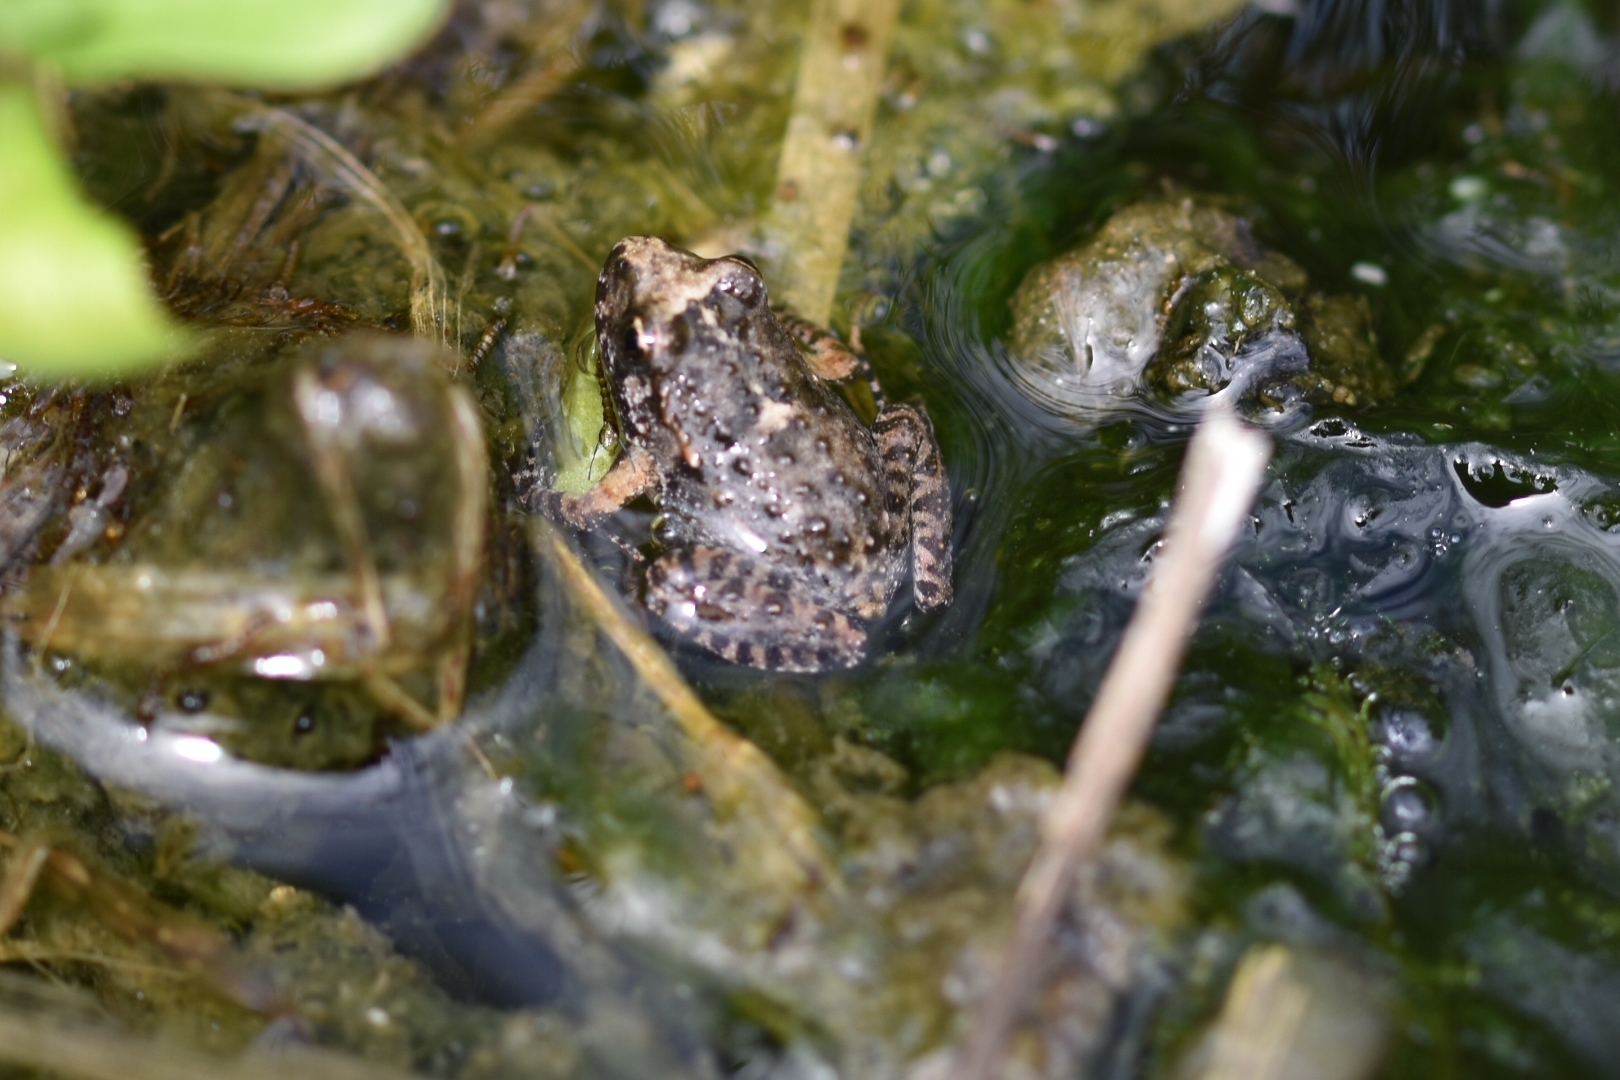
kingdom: Animalia
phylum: Chordata
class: Amphibia
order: Anura
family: Alytidae
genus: Discoglossus
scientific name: Discoglossus sardus
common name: Sardinia painted frog
